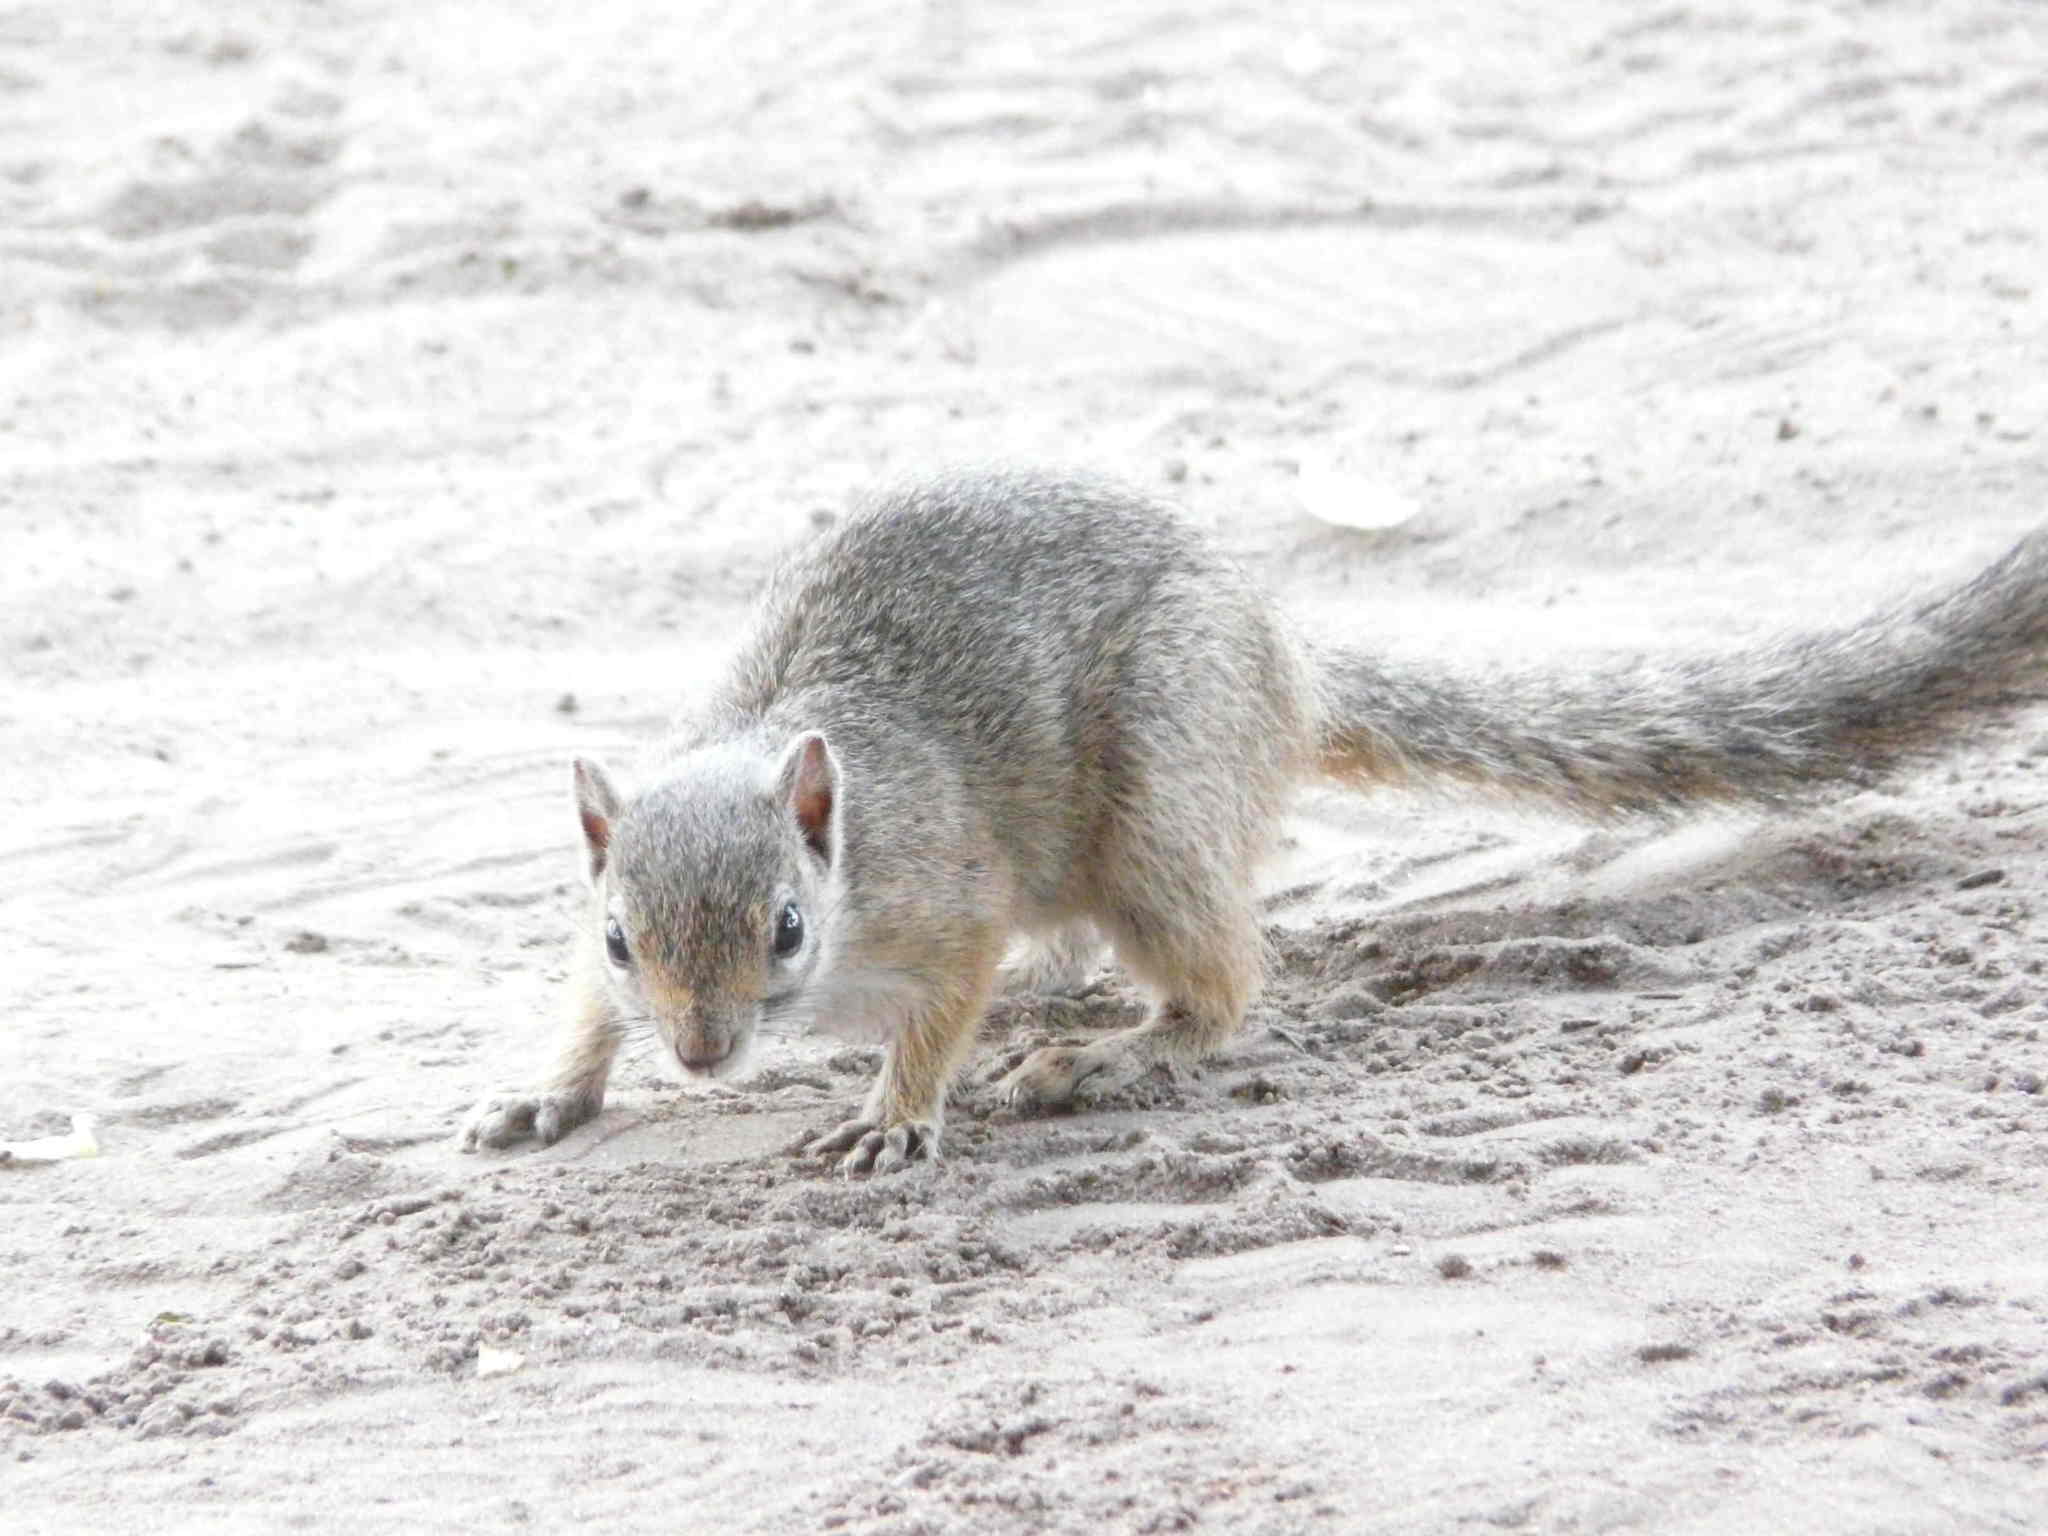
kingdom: Animalia
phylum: Chordata
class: Mammalia
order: Rodentia
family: Sciuridae
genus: Paraxerus
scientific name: Paraxerus cepapi
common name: Smith's bush squirrel
